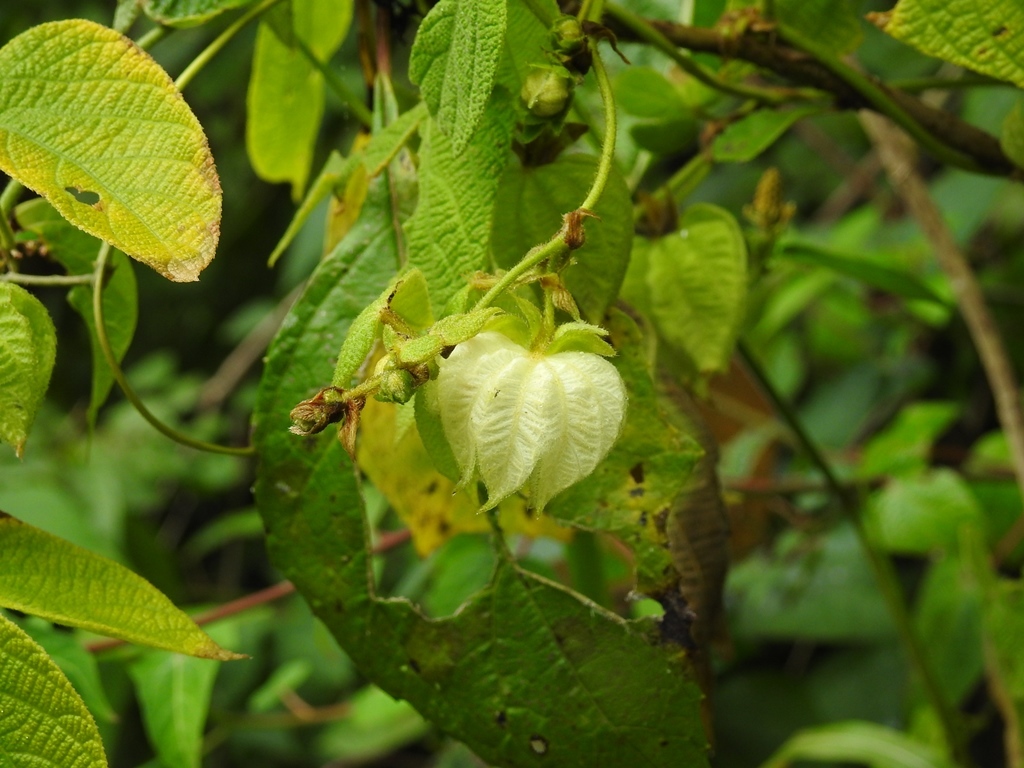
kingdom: Plantae
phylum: Tracheophyta
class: Magnoliopsida
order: Malpighiales
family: Euphorbiaceae
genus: Dalechampia
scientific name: Dalechampia scandens
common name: Spurgecreeper
